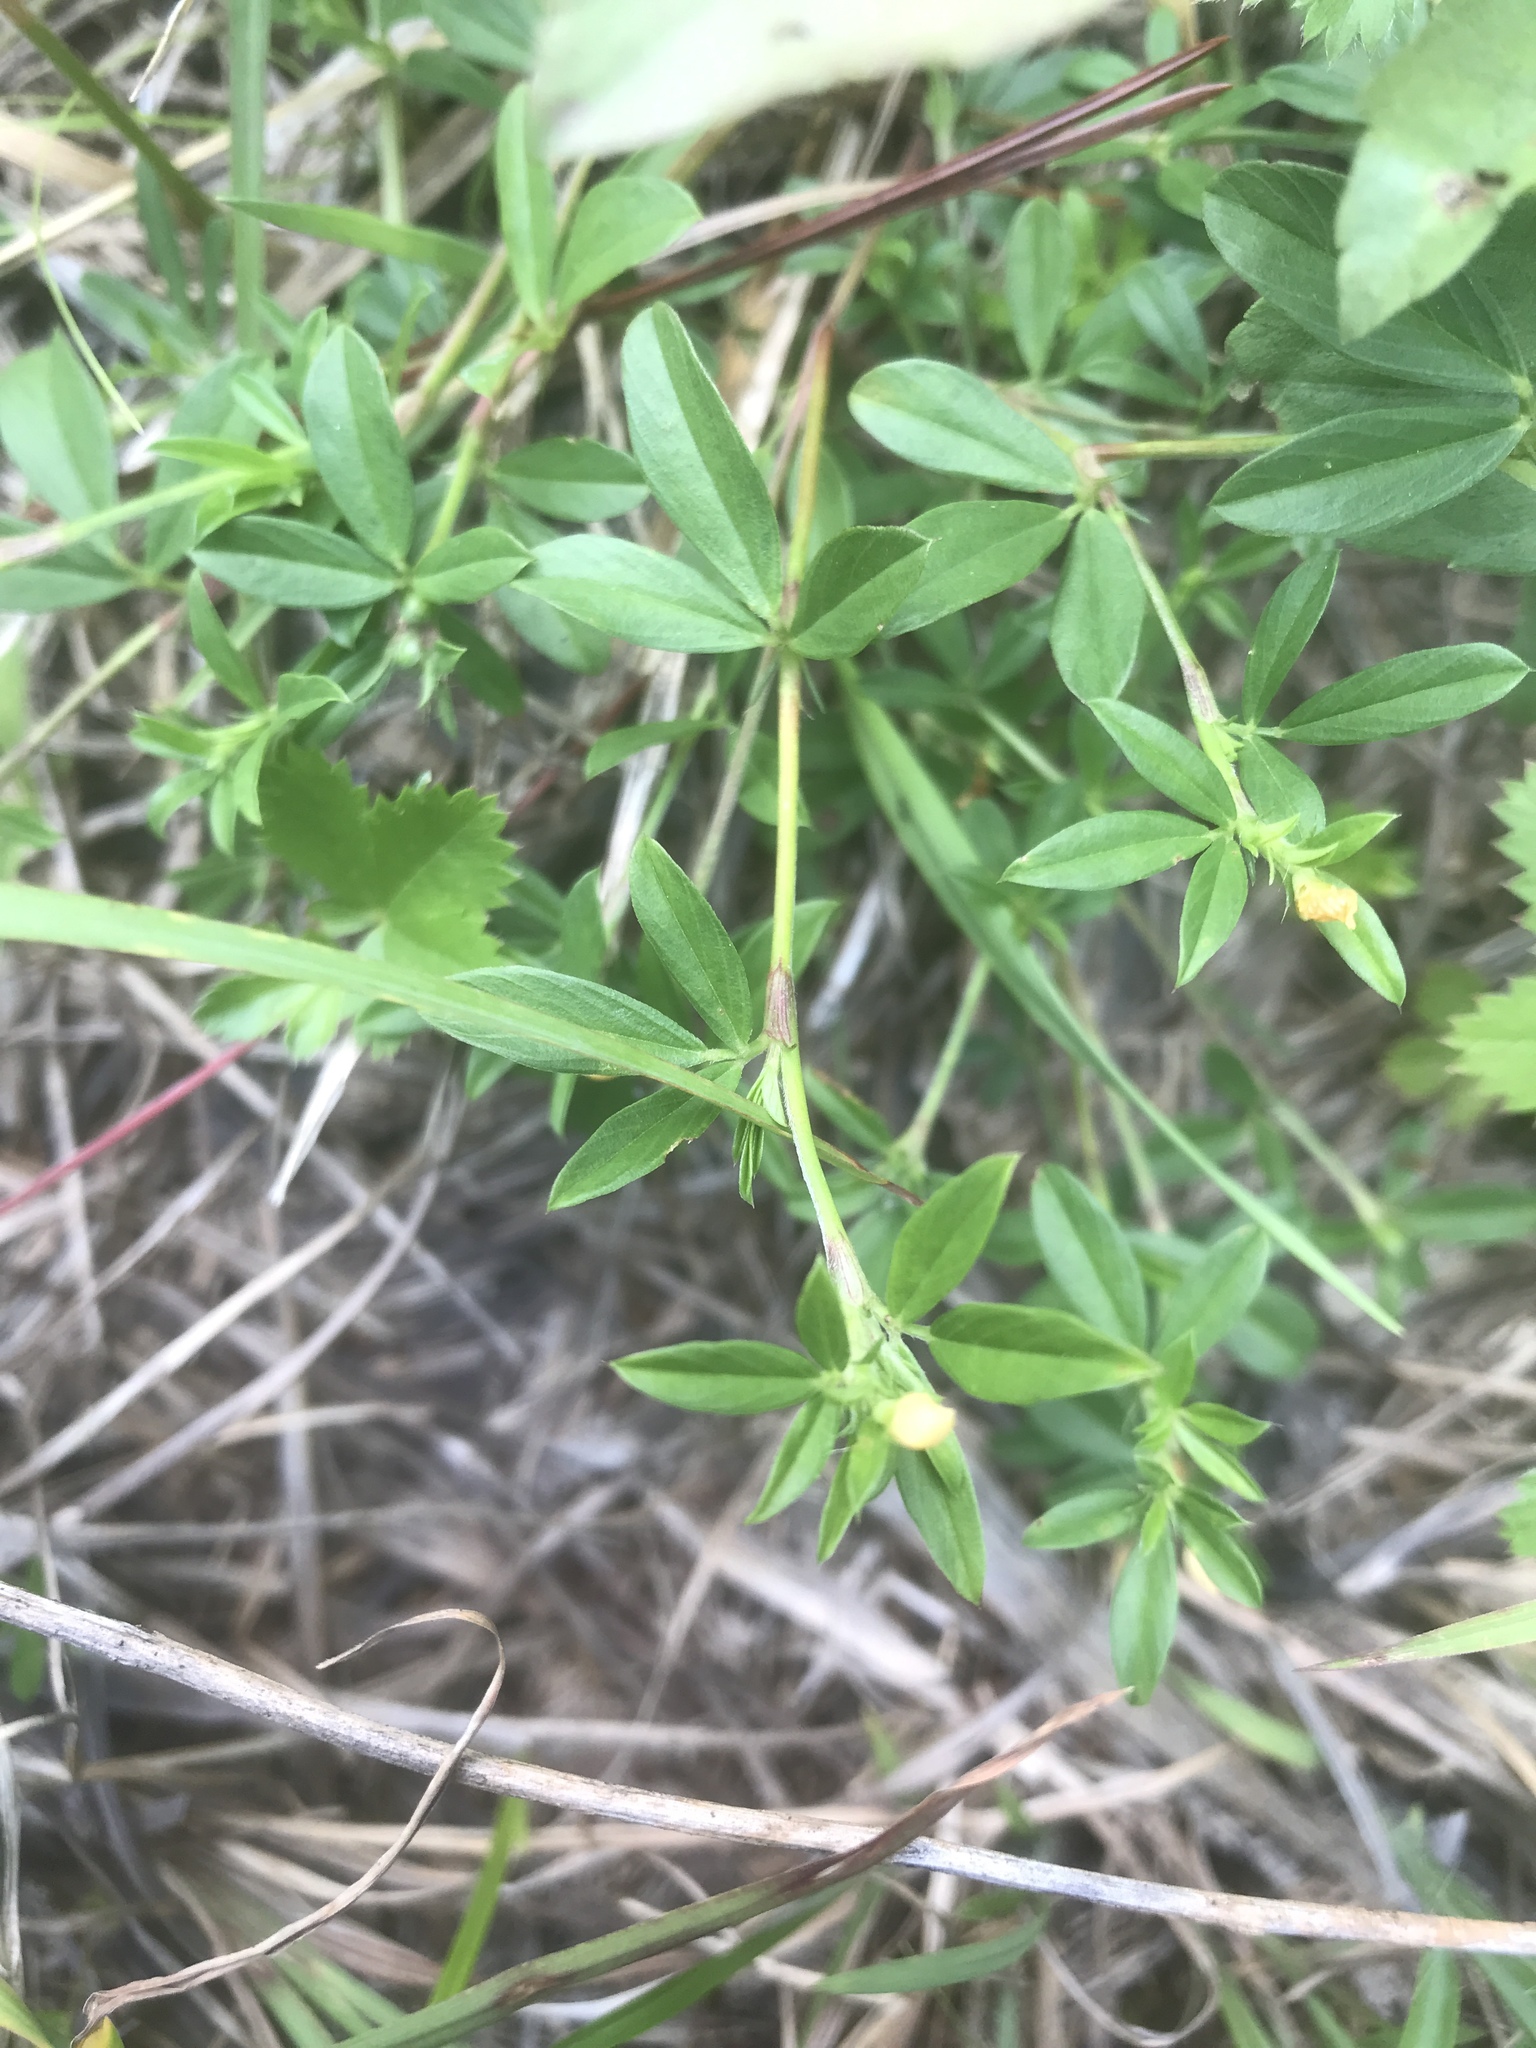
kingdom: Plantae
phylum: Tracheophyta
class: Magnoliopsida
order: Fabales
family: Fabaceae
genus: Stylosanthes
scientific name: Stylosanthes biflora
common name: Two-flower pencil-flower
